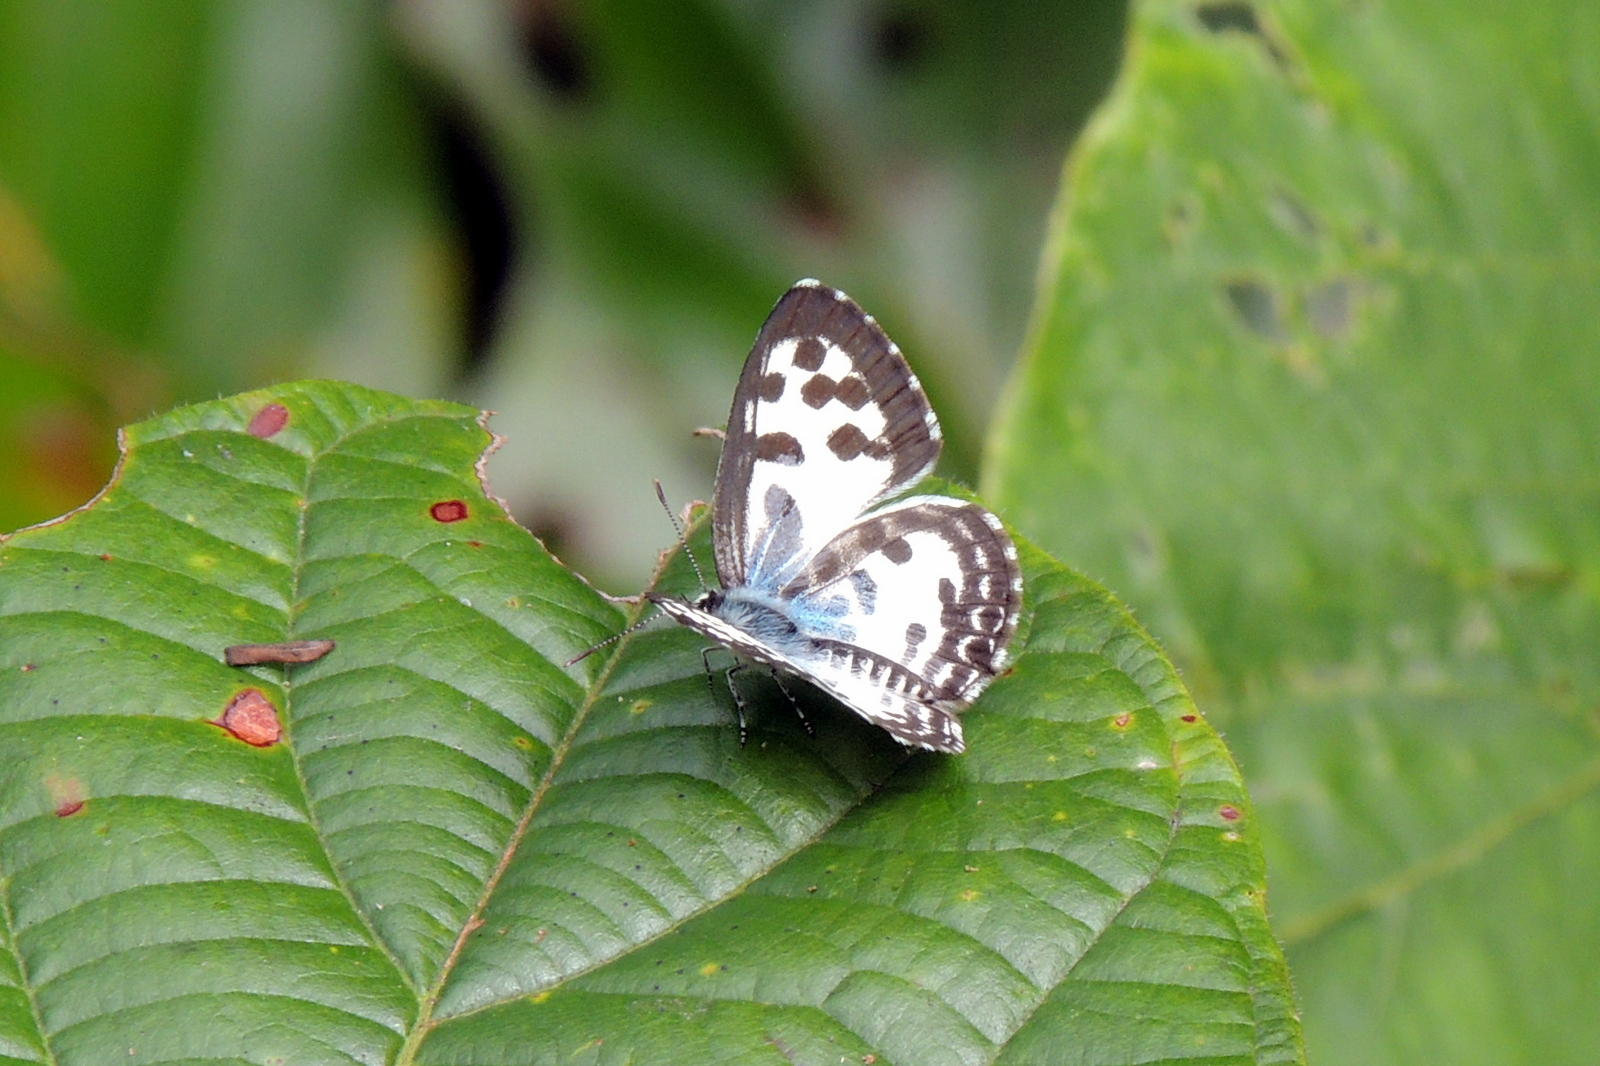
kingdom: Animalia
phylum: Arthropoda
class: Insecta
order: Lepidoptera
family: Lycaenidae
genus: Castalius
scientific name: Castalius rosimon
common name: Common pierrot
